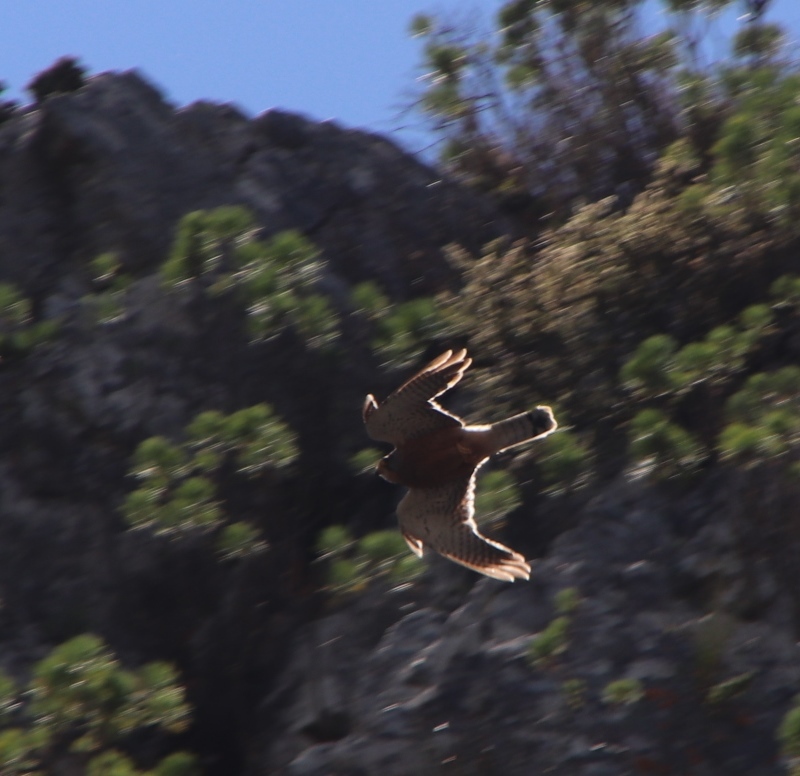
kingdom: Animalia
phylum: Chordata
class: Aves
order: Falconiformes
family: Falconidae
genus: Falco
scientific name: Falco rupicolus
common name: Rock kestrel
